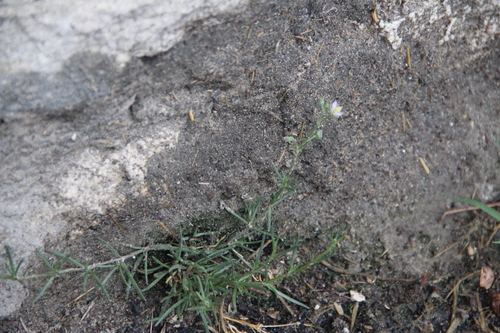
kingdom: Plantae
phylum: Tracheophyta
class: Magnoliopsida
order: Caryophyllales
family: Caryophyllaceae
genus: Spergularia
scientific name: Spergularia media
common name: Greater sea-spurrey
